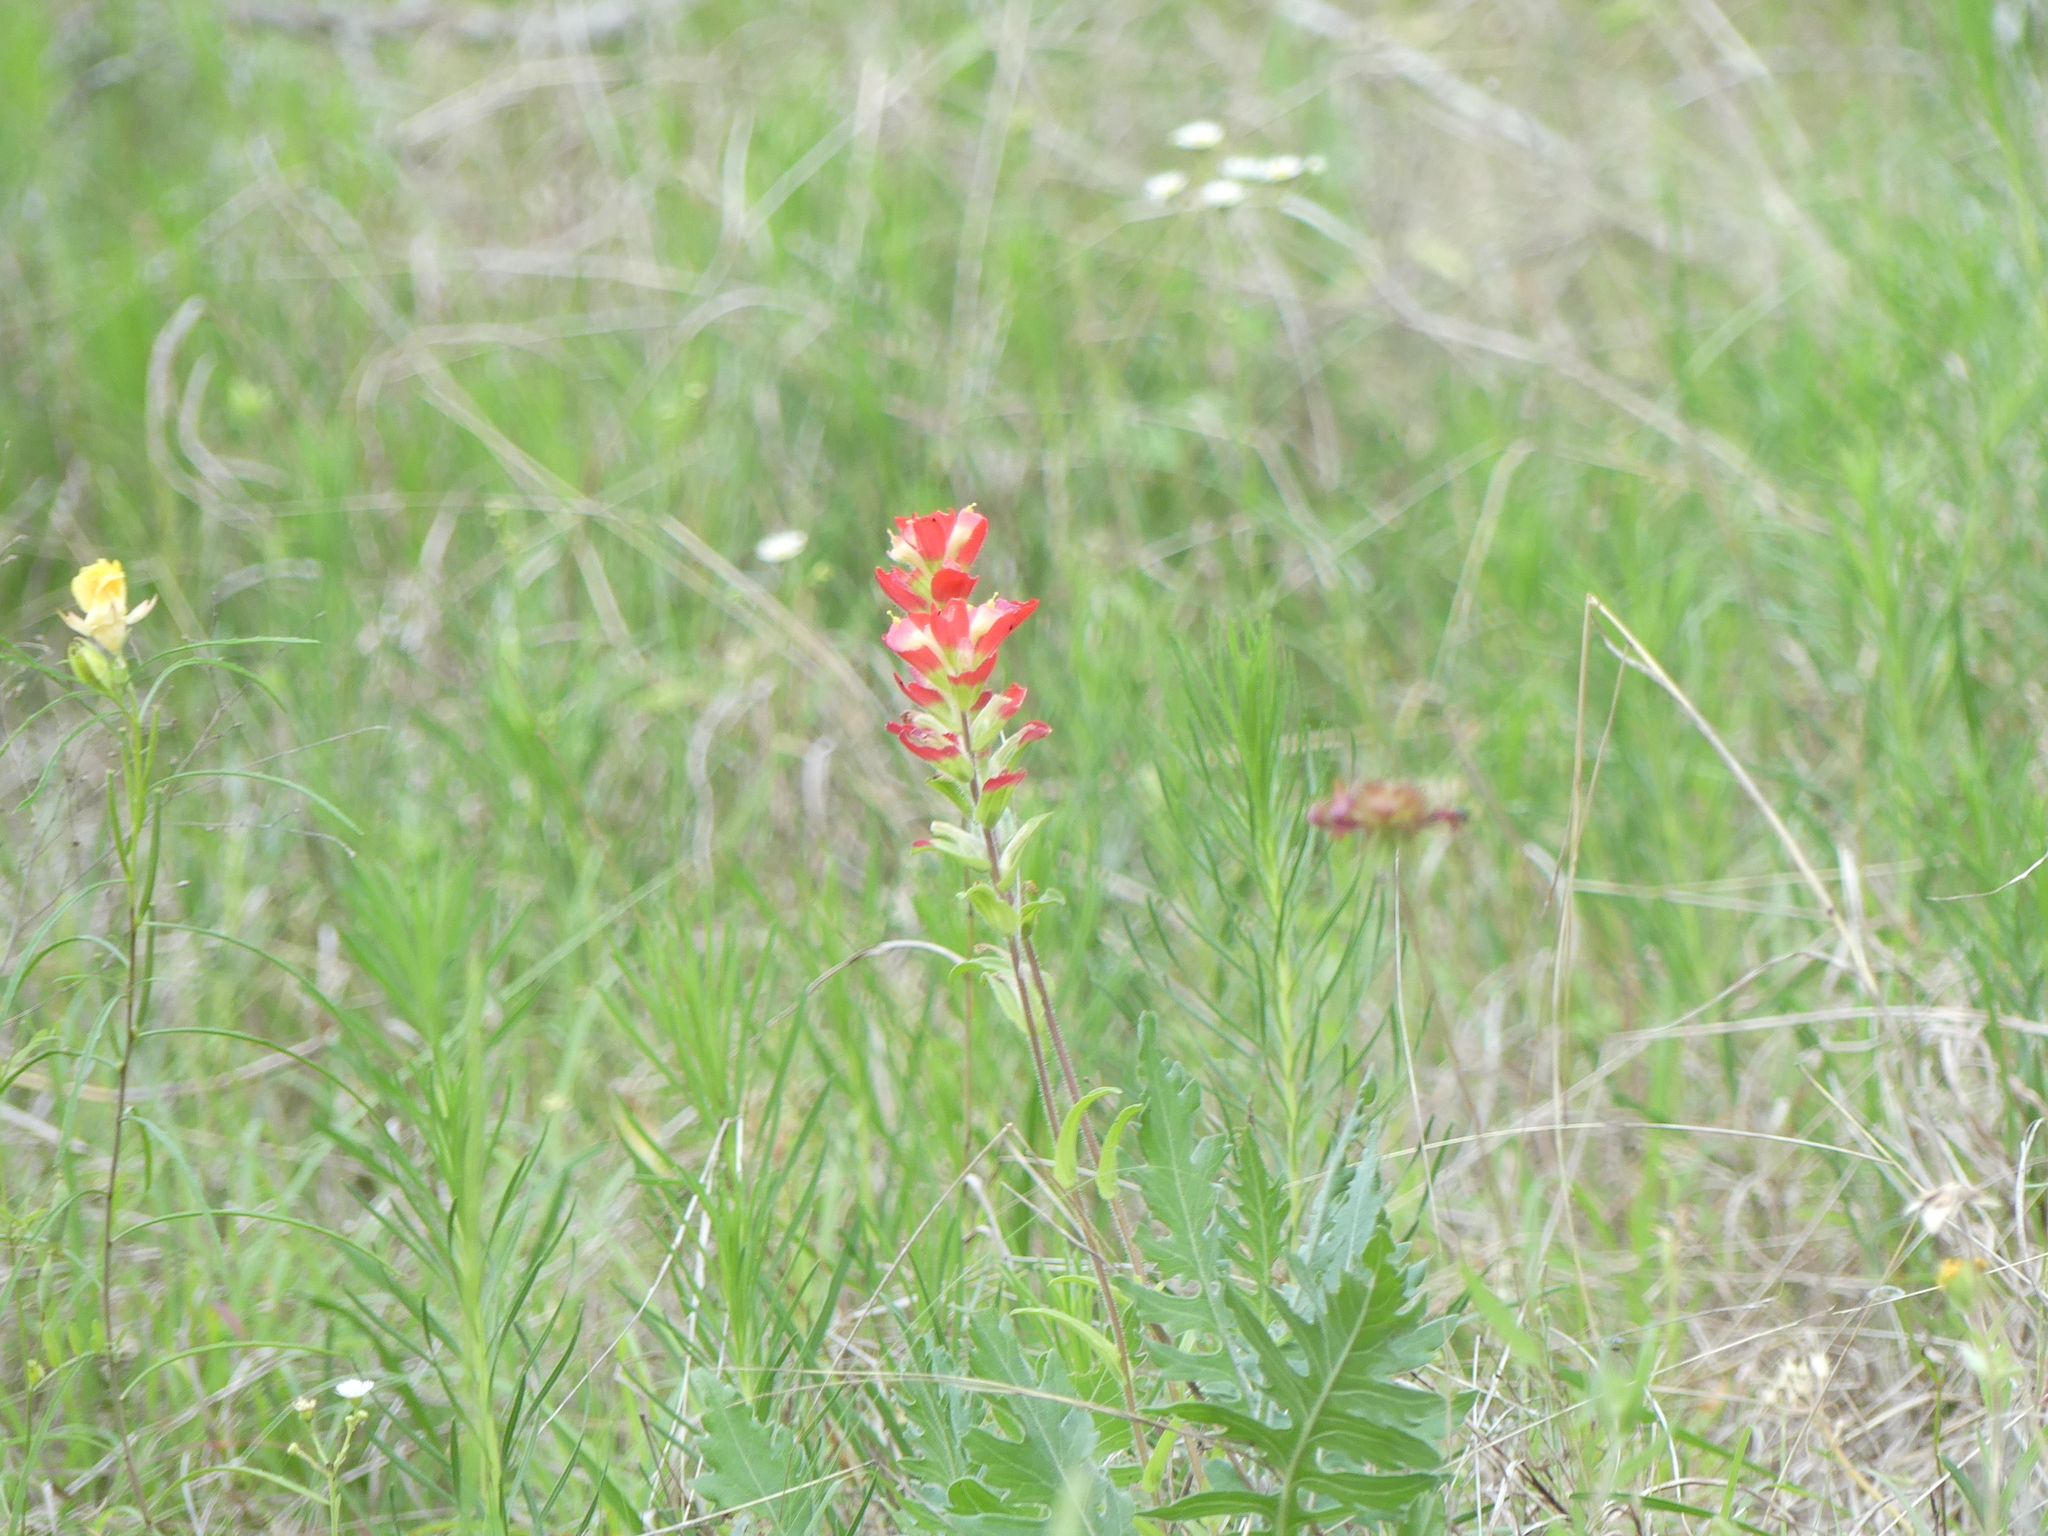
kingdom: Plantae
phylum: Tracheophyta
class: Magnoliopsida
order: Lamiales
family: Orobanchaceae
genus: Castilleja
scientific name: Castilleja indivisa
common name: Texas paintbrush
